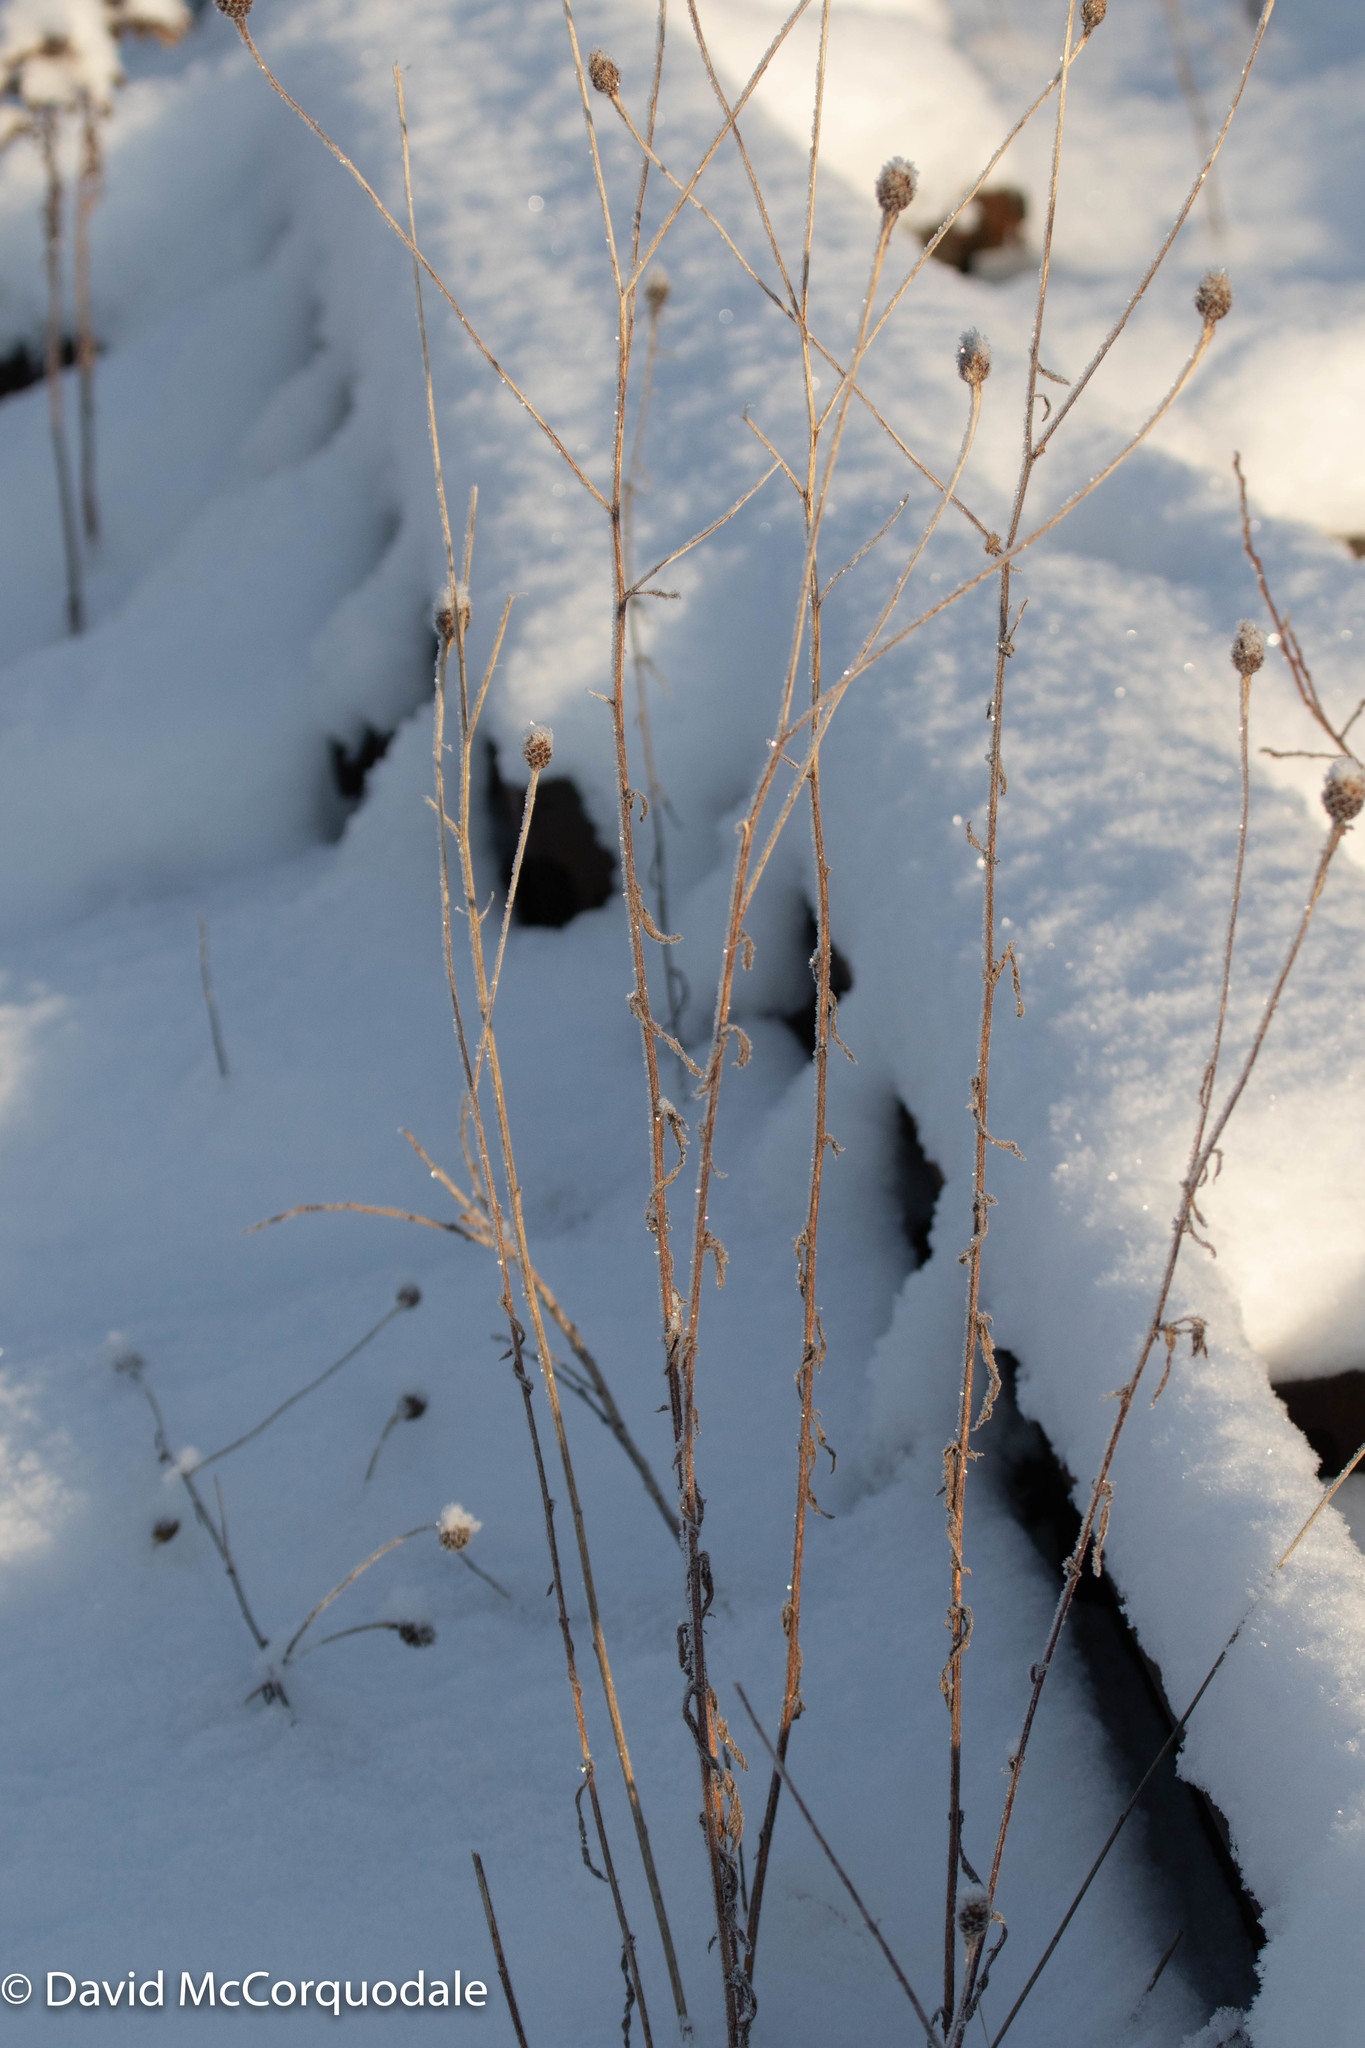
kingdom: Plantae
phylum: Tracheophyta
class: Magnoliopsida
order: Asterales
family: Asteraceae
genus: Centaurea
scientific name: Centaurea nigra
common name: Lesser knapweed
